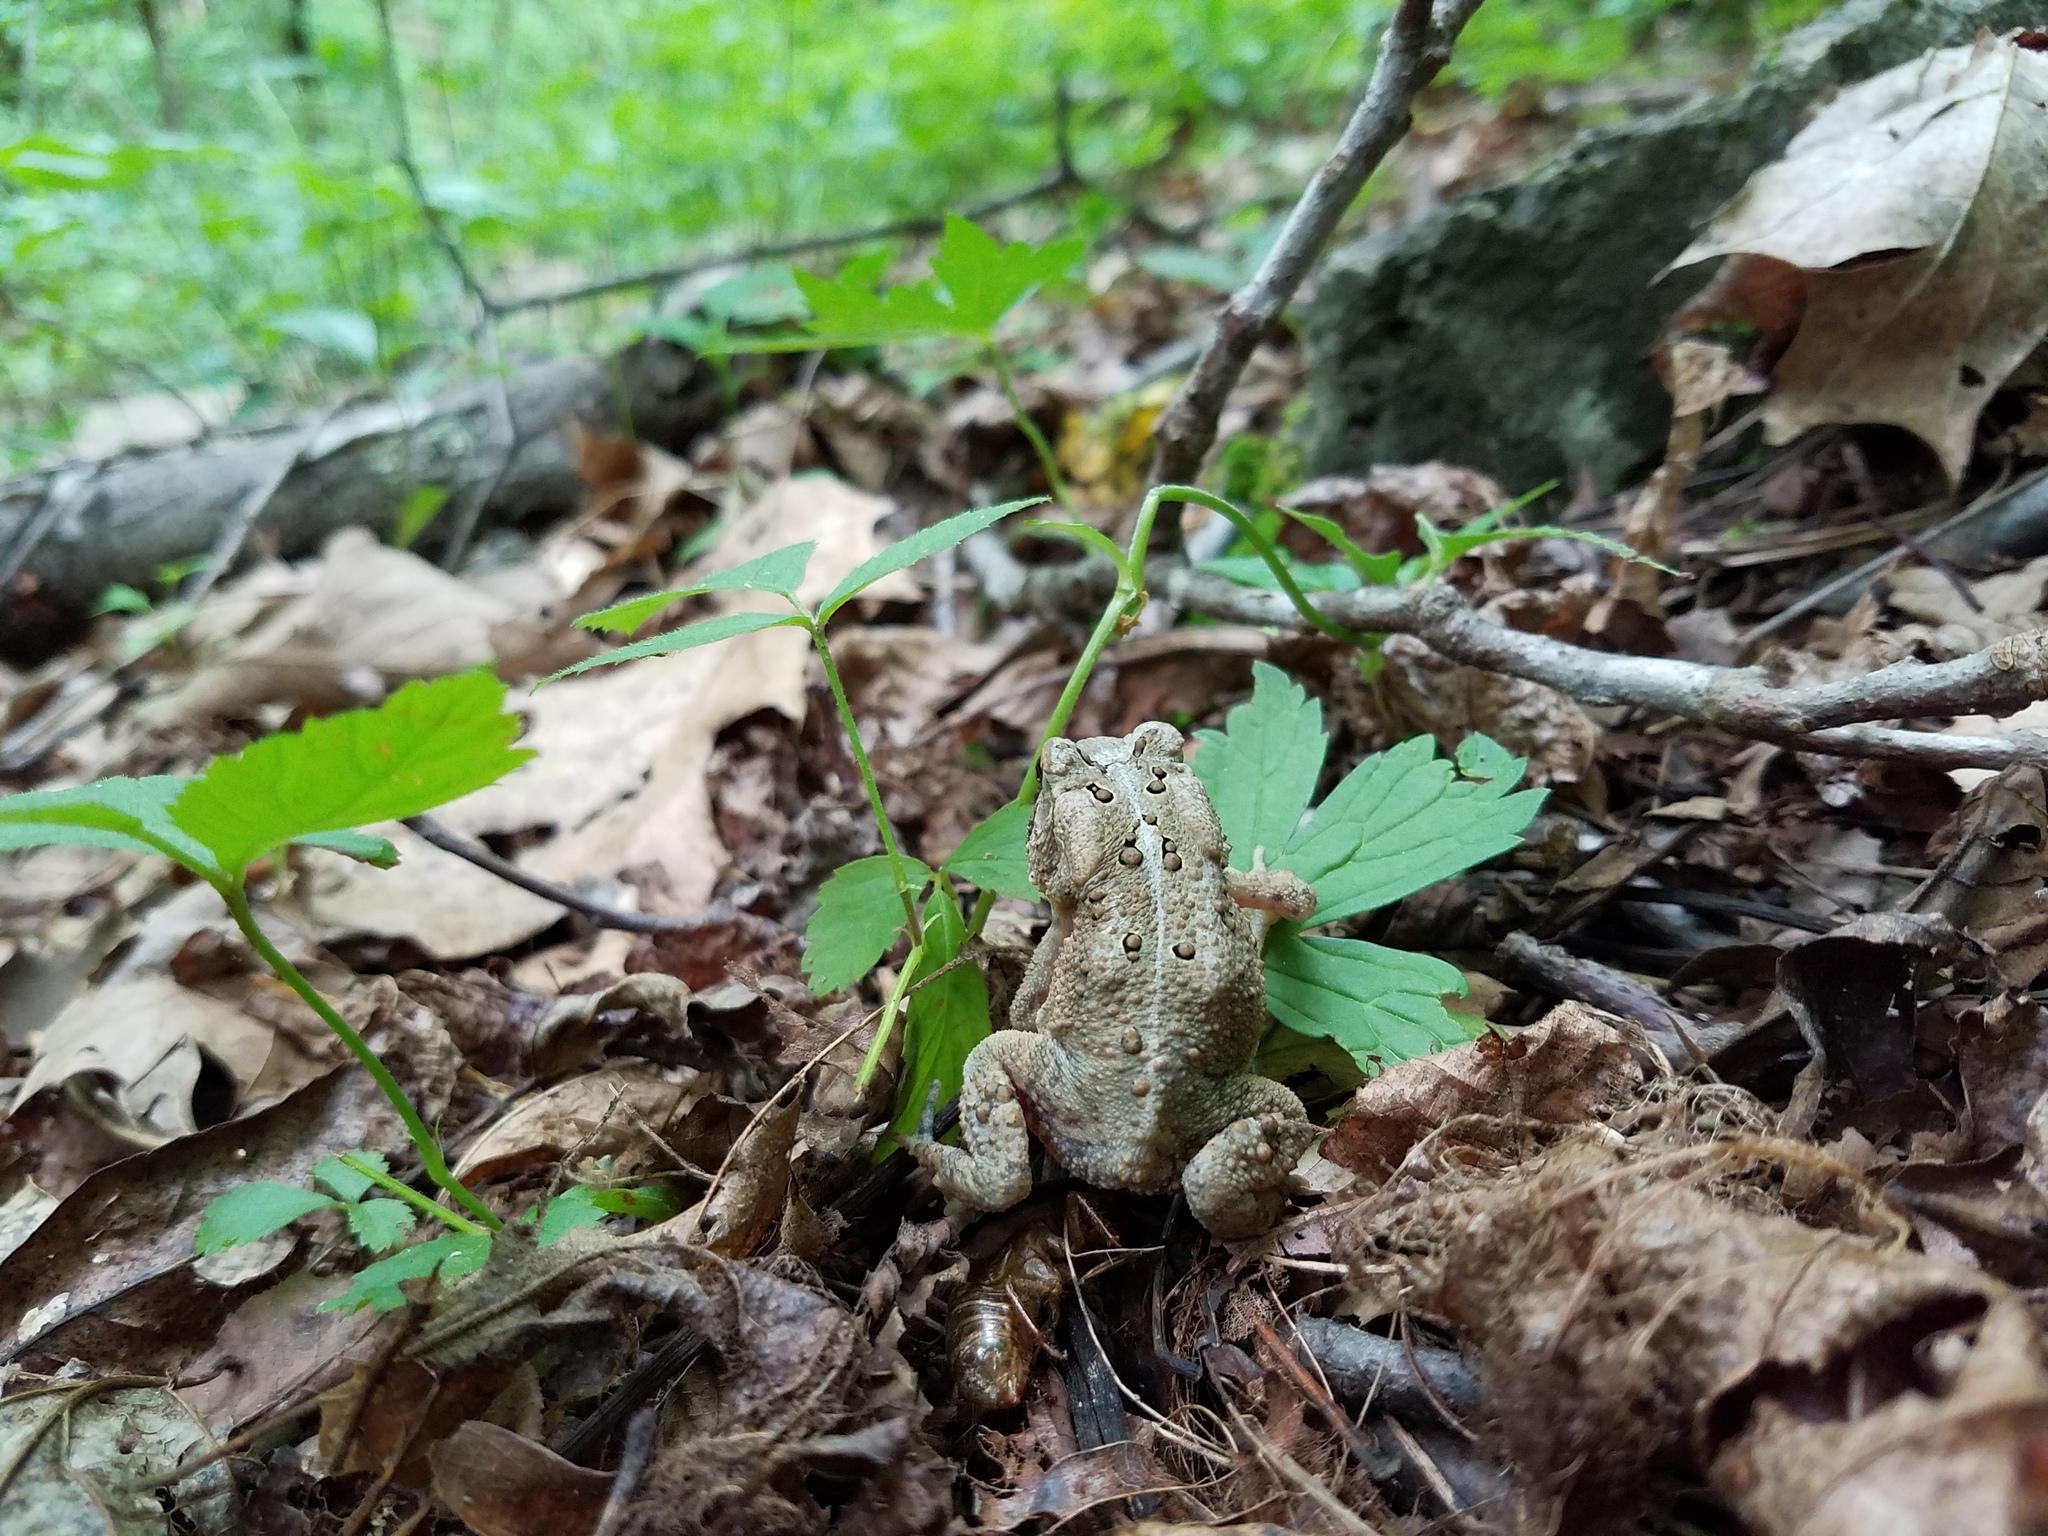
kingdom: Animalia
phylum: Chordata
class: Amphibia
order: Anura
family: Bufonidae
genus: Anaxyrus
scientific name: Anaxyrus americanus
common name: American toad
